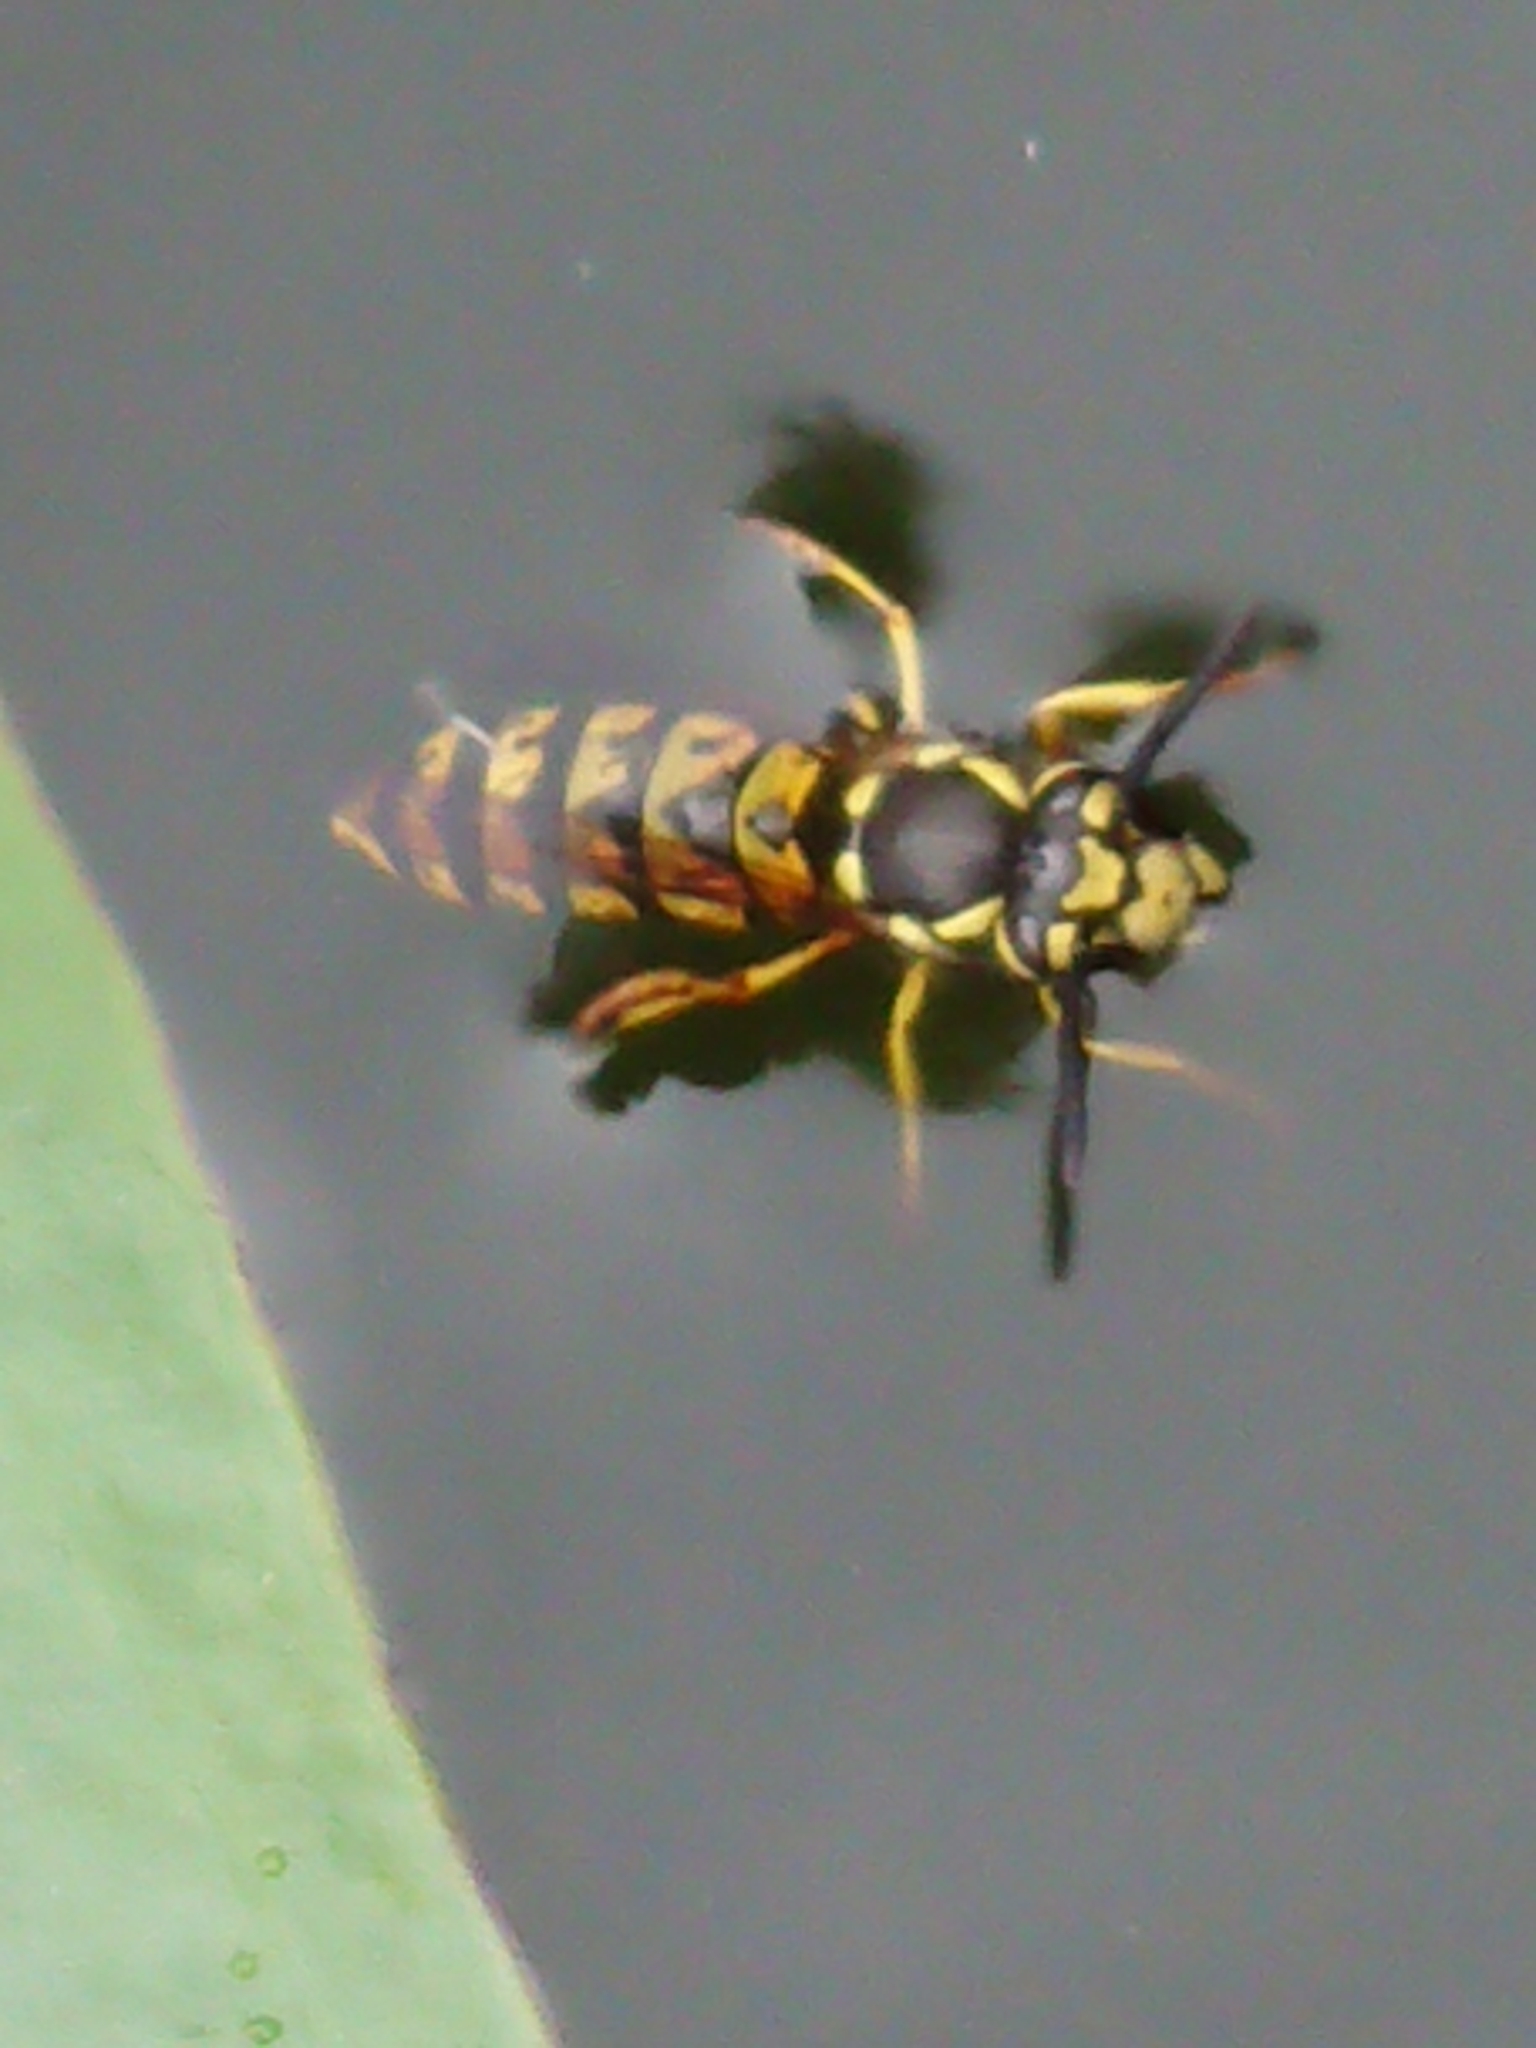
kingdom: Animalia
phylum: Arthropoda
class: Insecta
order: Hymenoptera
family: Vespidae
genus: Vespula
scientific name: Vespula germanica
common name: German wasp
